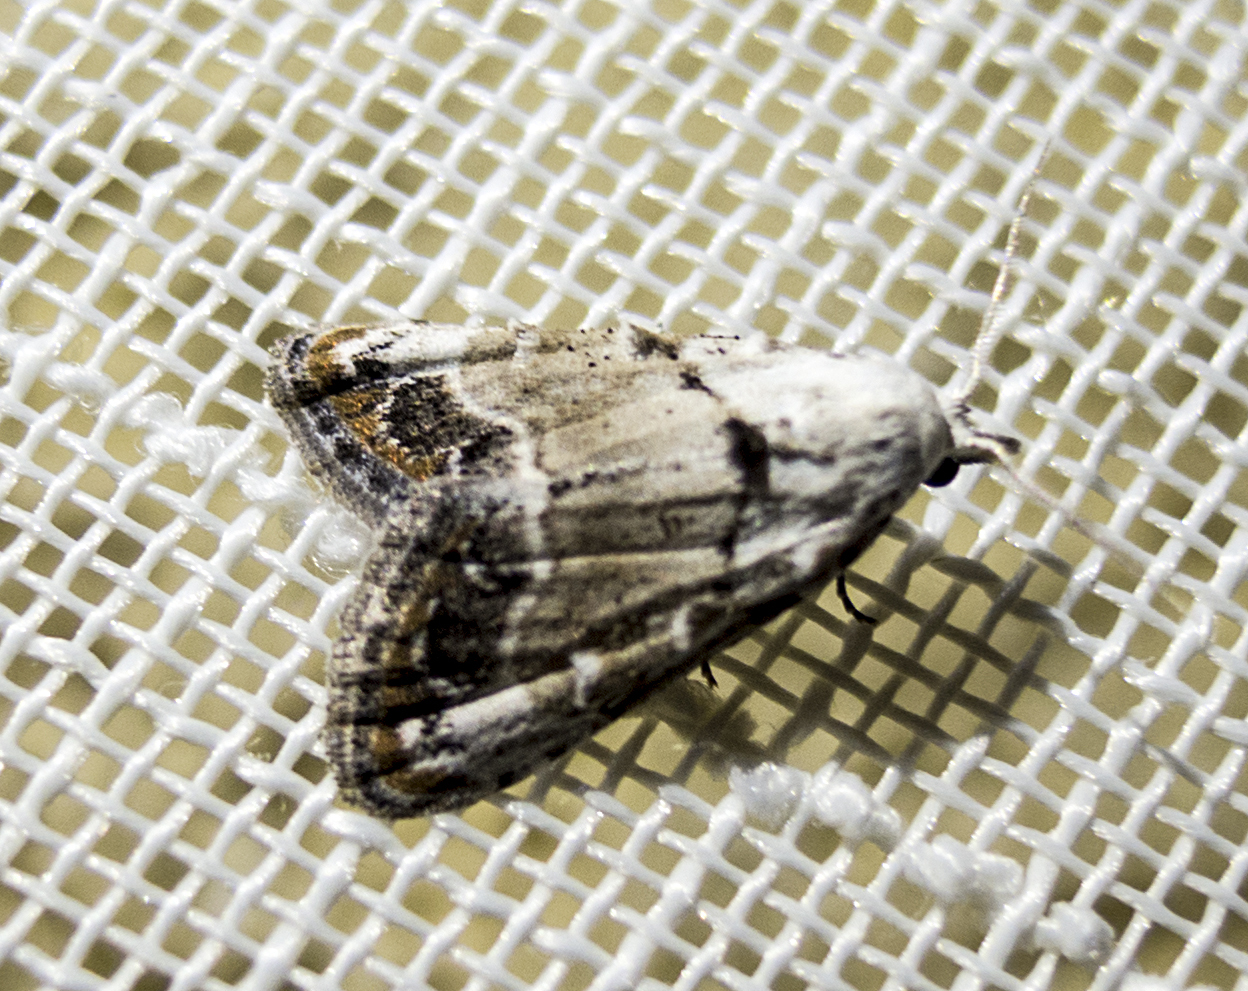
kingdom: Animalia
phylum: Arthropoda
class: Insecta
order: Lepidoptera
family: Nolidae
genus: Nola
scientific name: Nola chlamitulalis
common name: Jersey black arches
